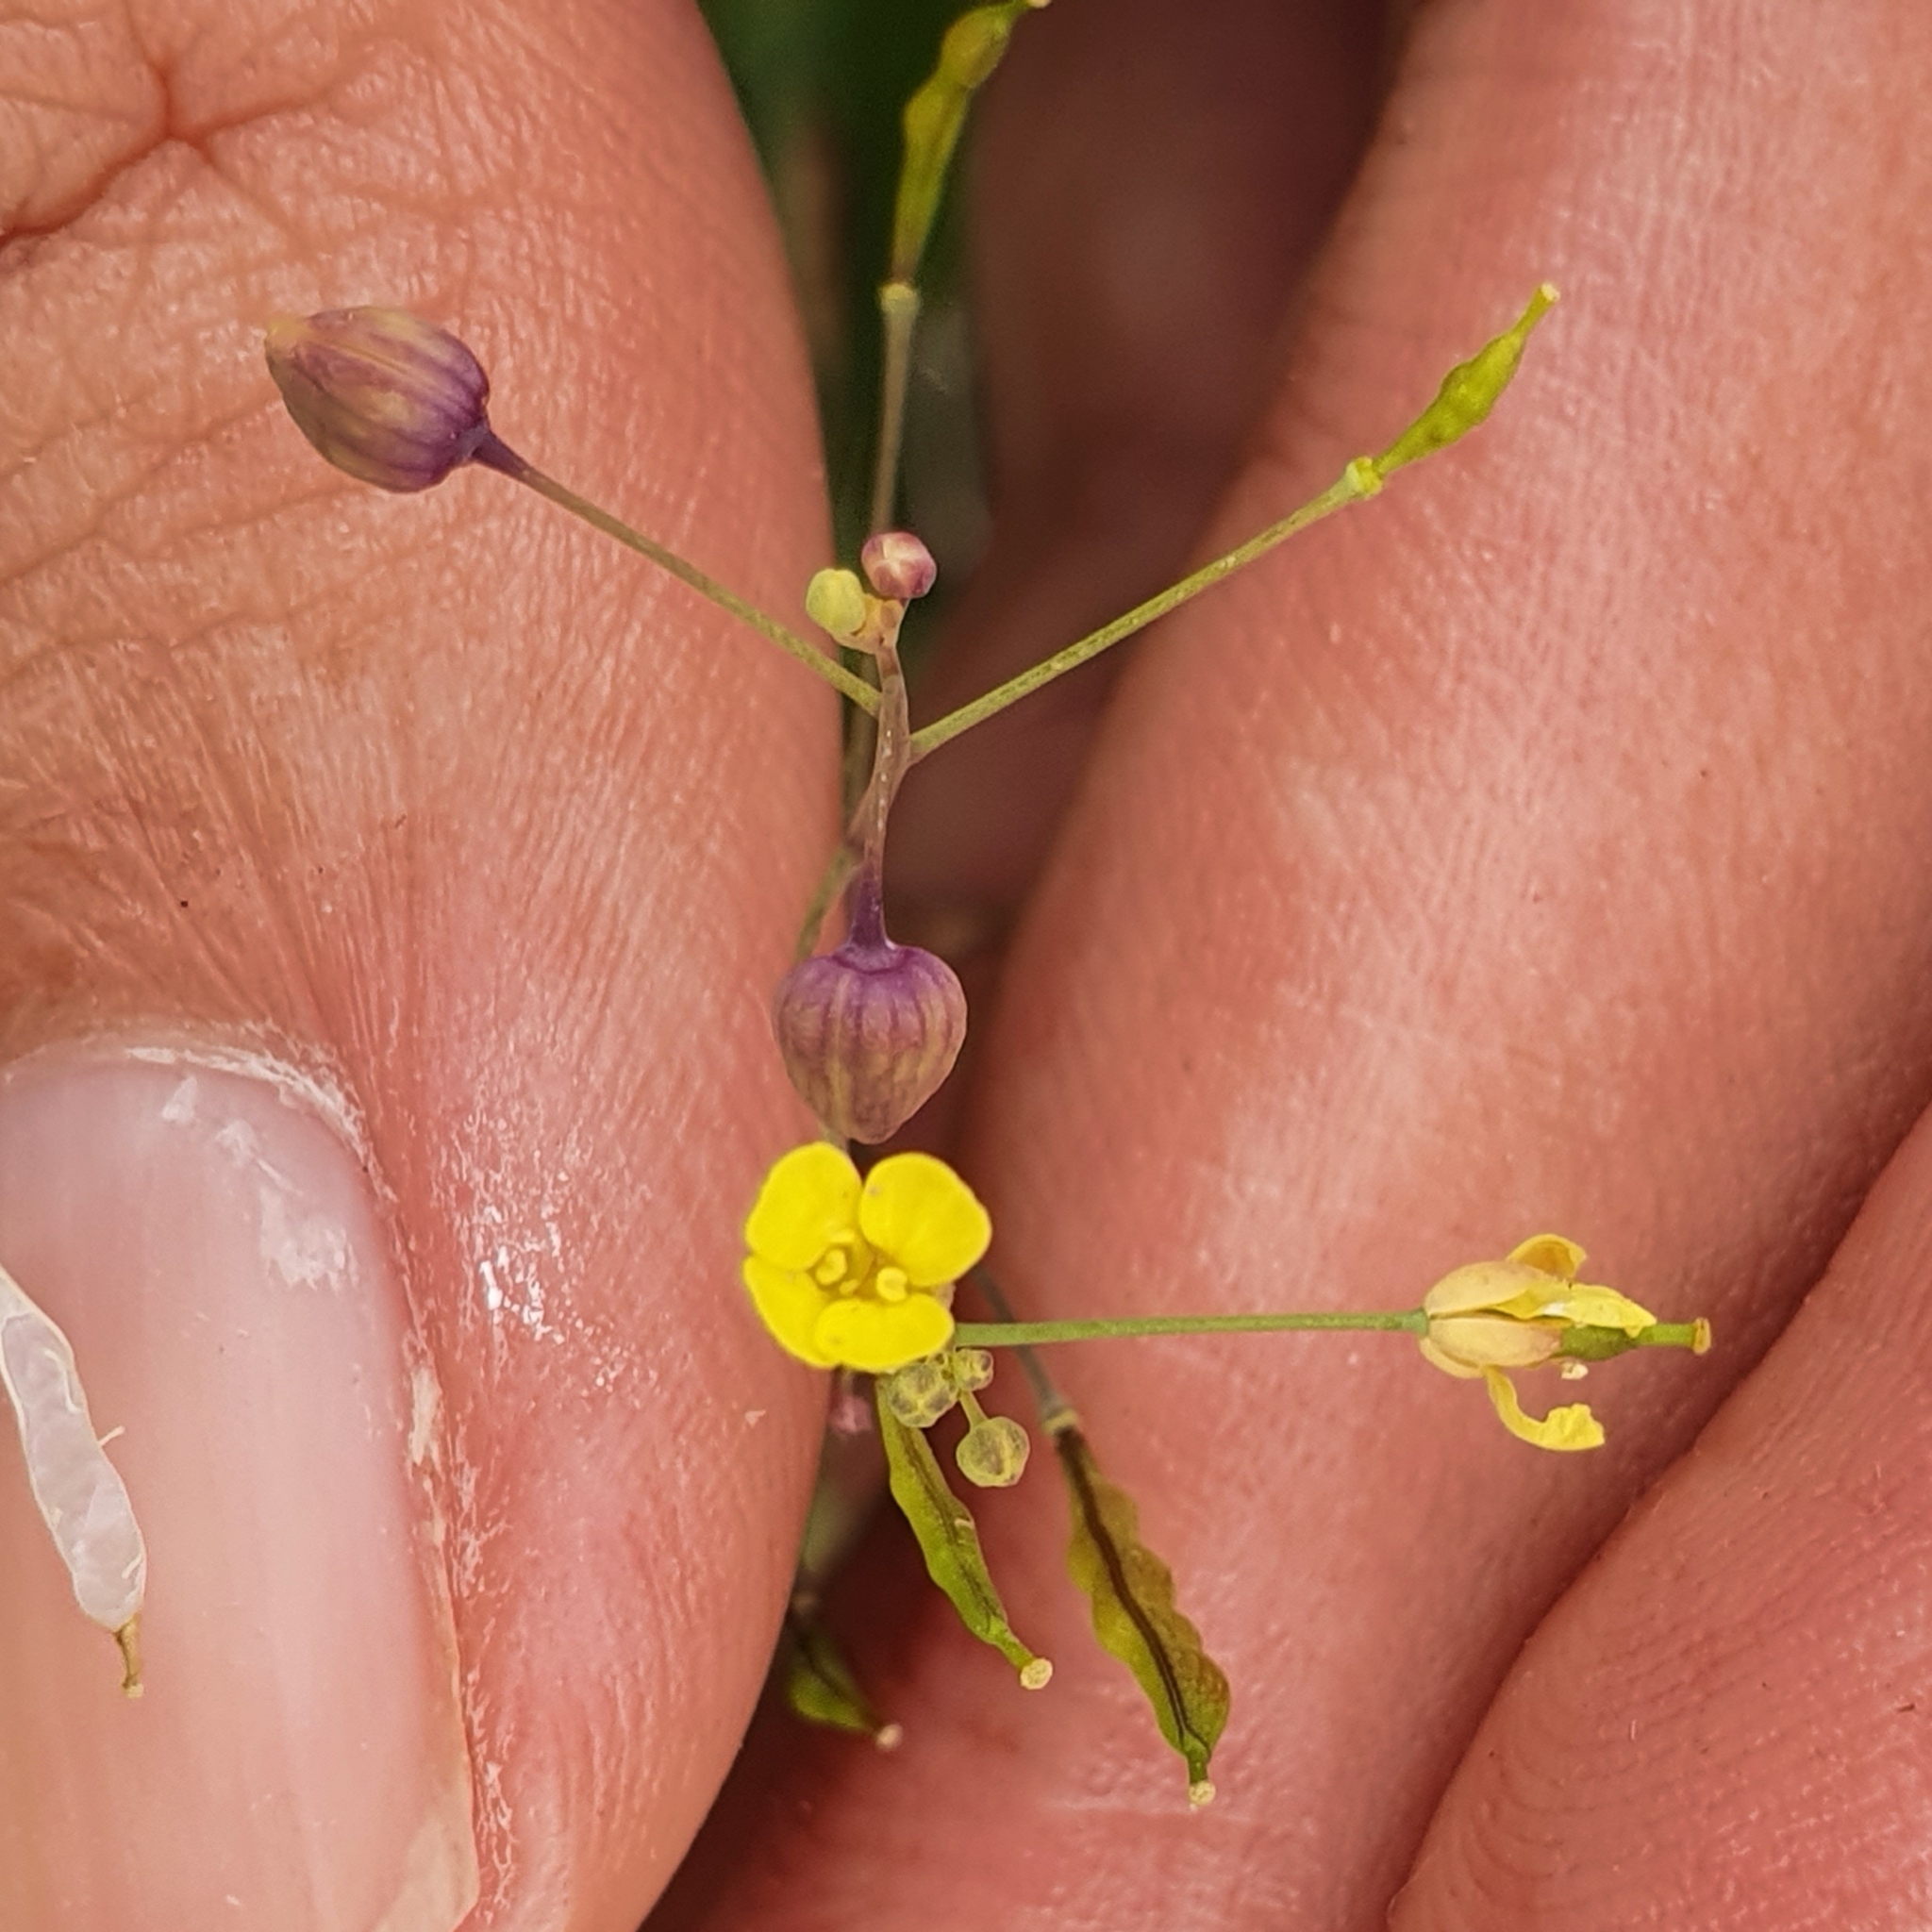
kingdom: Plantae
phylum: Tracheophyta
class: Magnoliopsida
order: Brassicales
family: Brassicaceae
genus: Brassica
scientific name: Brassica souliei
